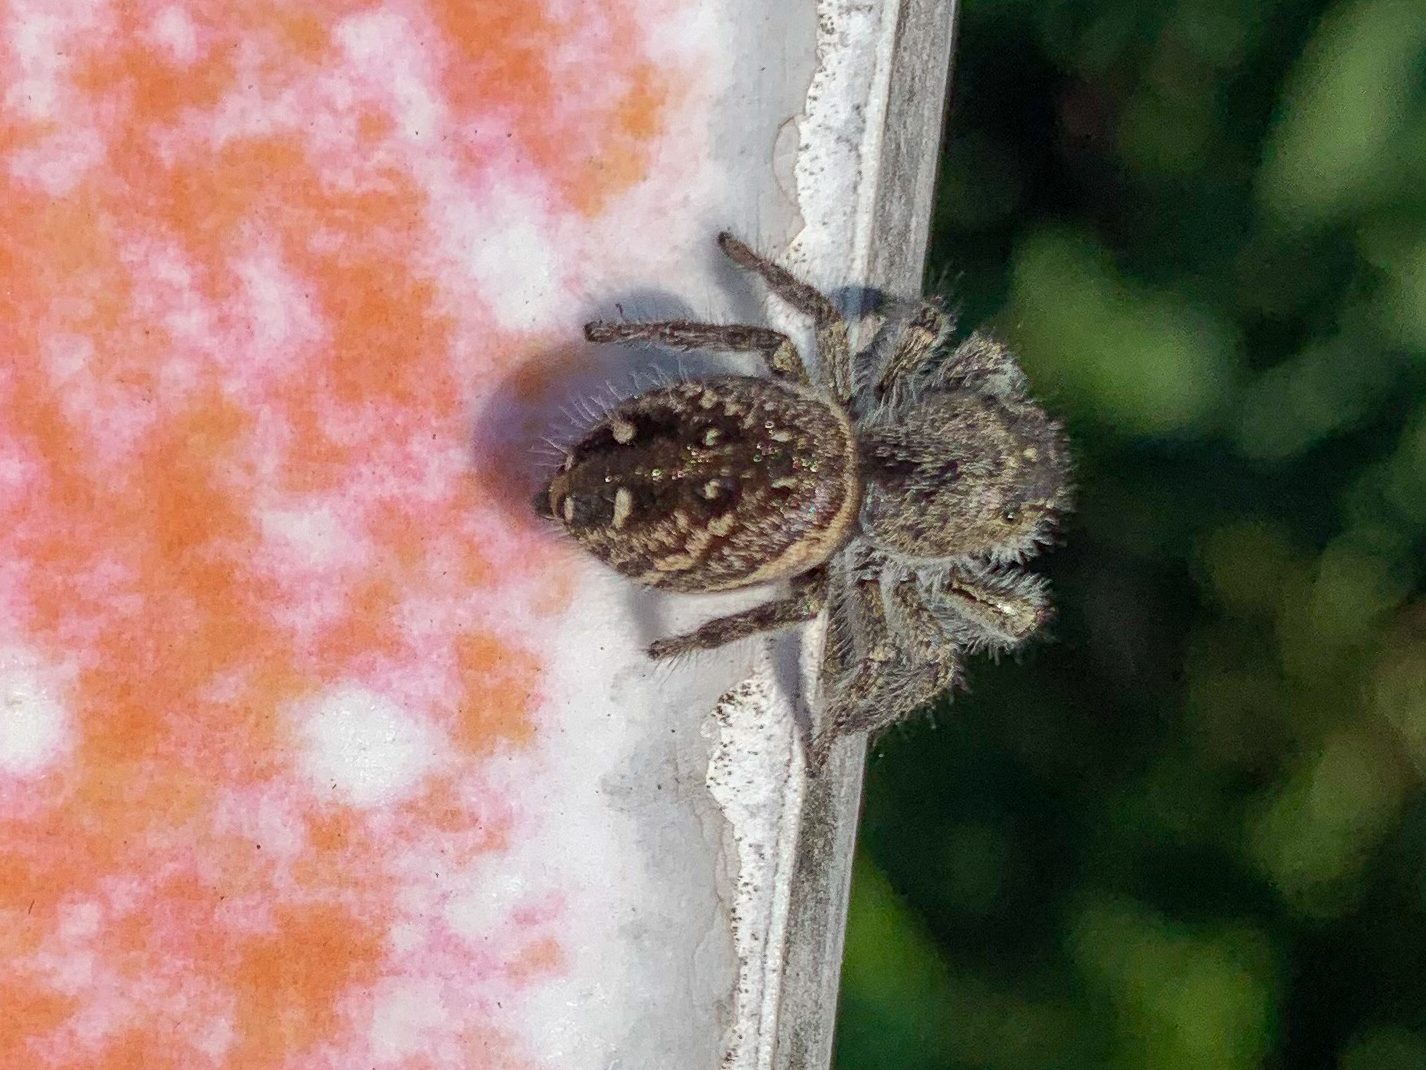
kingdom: Animalia
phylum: Arthropoda
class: Arachnida
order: Araneae
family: Salticidae
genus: Phidippus
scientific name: Phidippus purpuratus
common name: Marbled purple jumping spider
